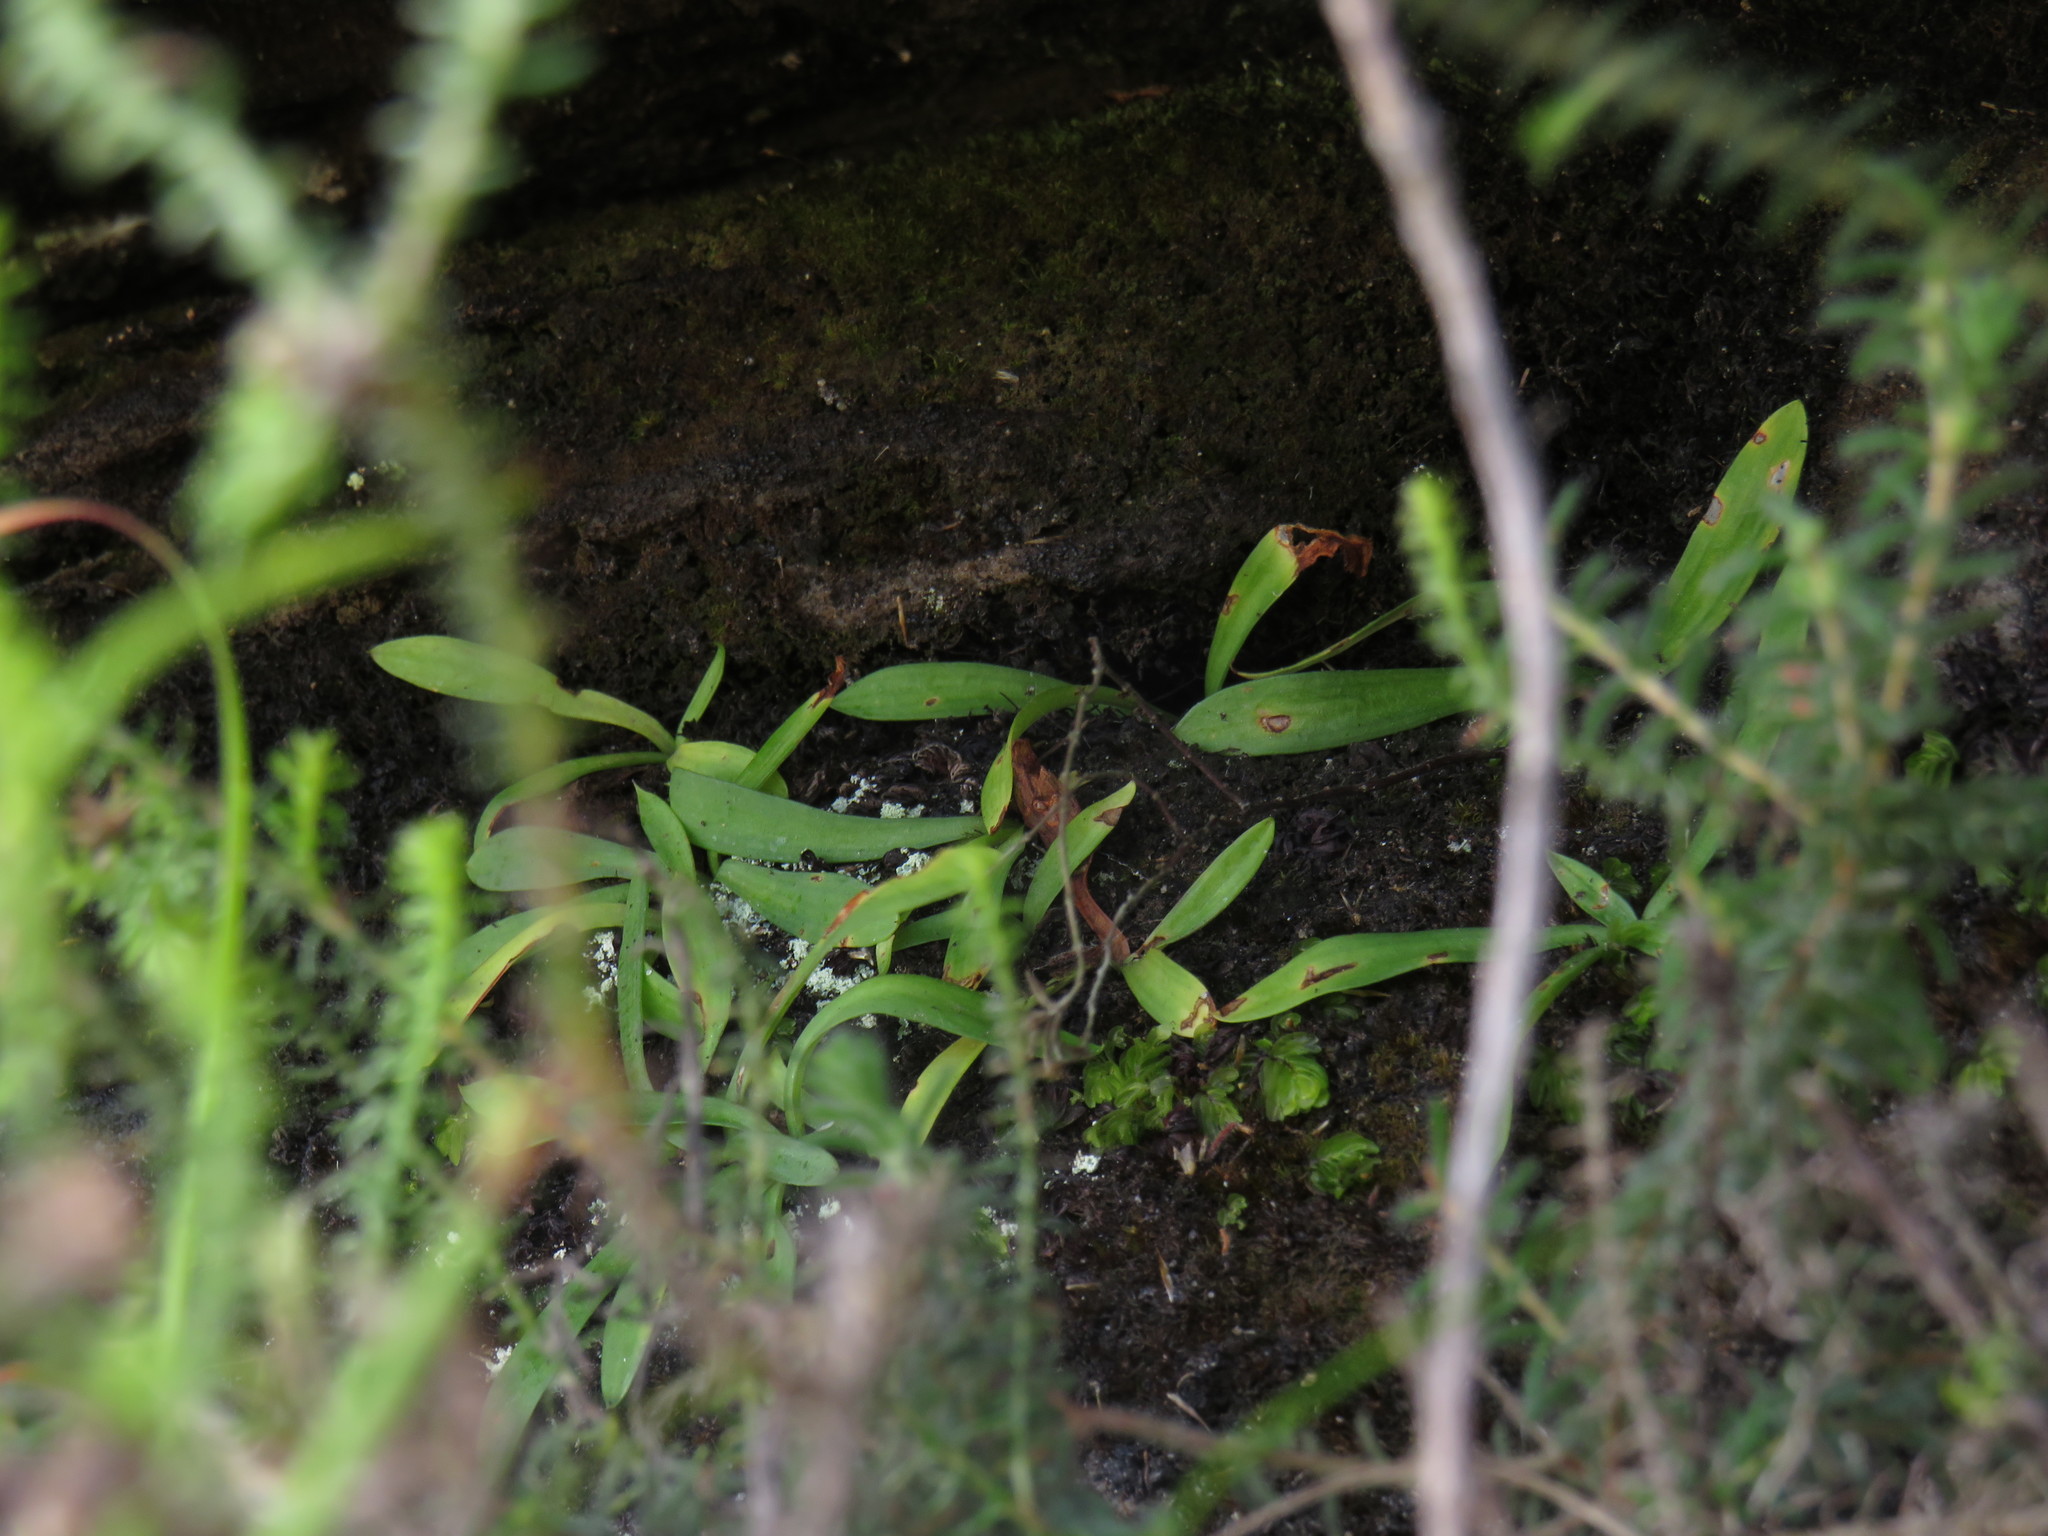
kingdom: Plantae
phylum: Tracheophyta
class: Liliopsida
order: Asparagales
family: Orchidaceae
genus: Disa
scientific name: Disa maculata
